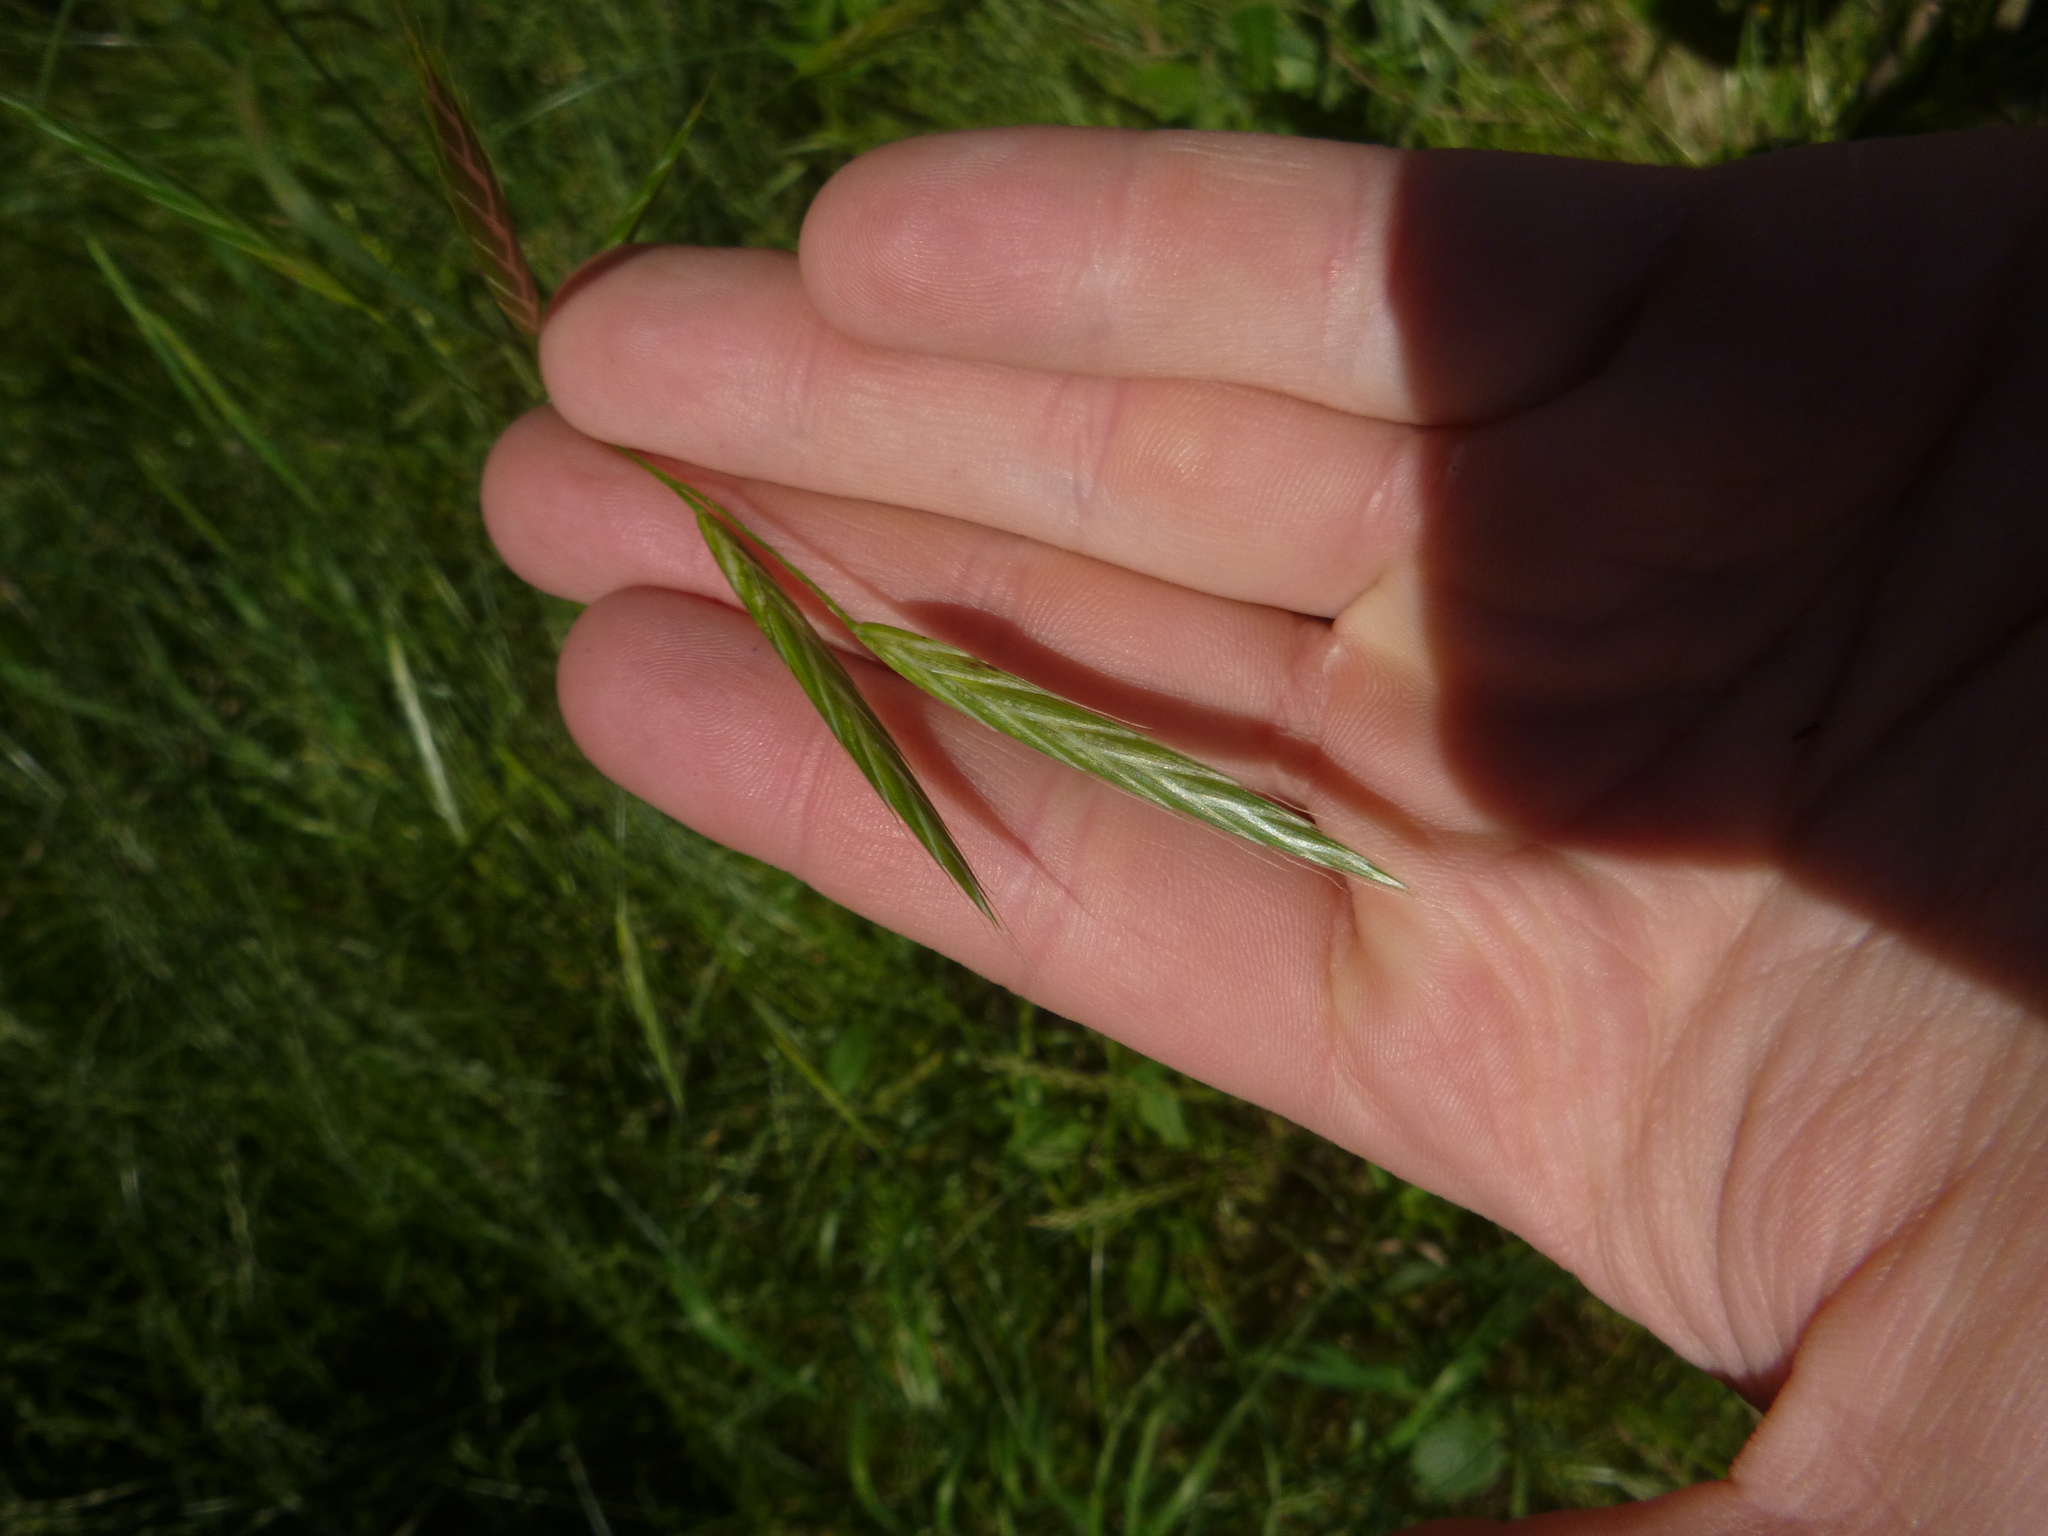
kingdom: Plantae
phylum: Tracheophyta
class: Liliopsida
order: Poales
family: Poaceae
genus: Bromus
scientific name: Bromus carinatus
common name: Mountain brome
